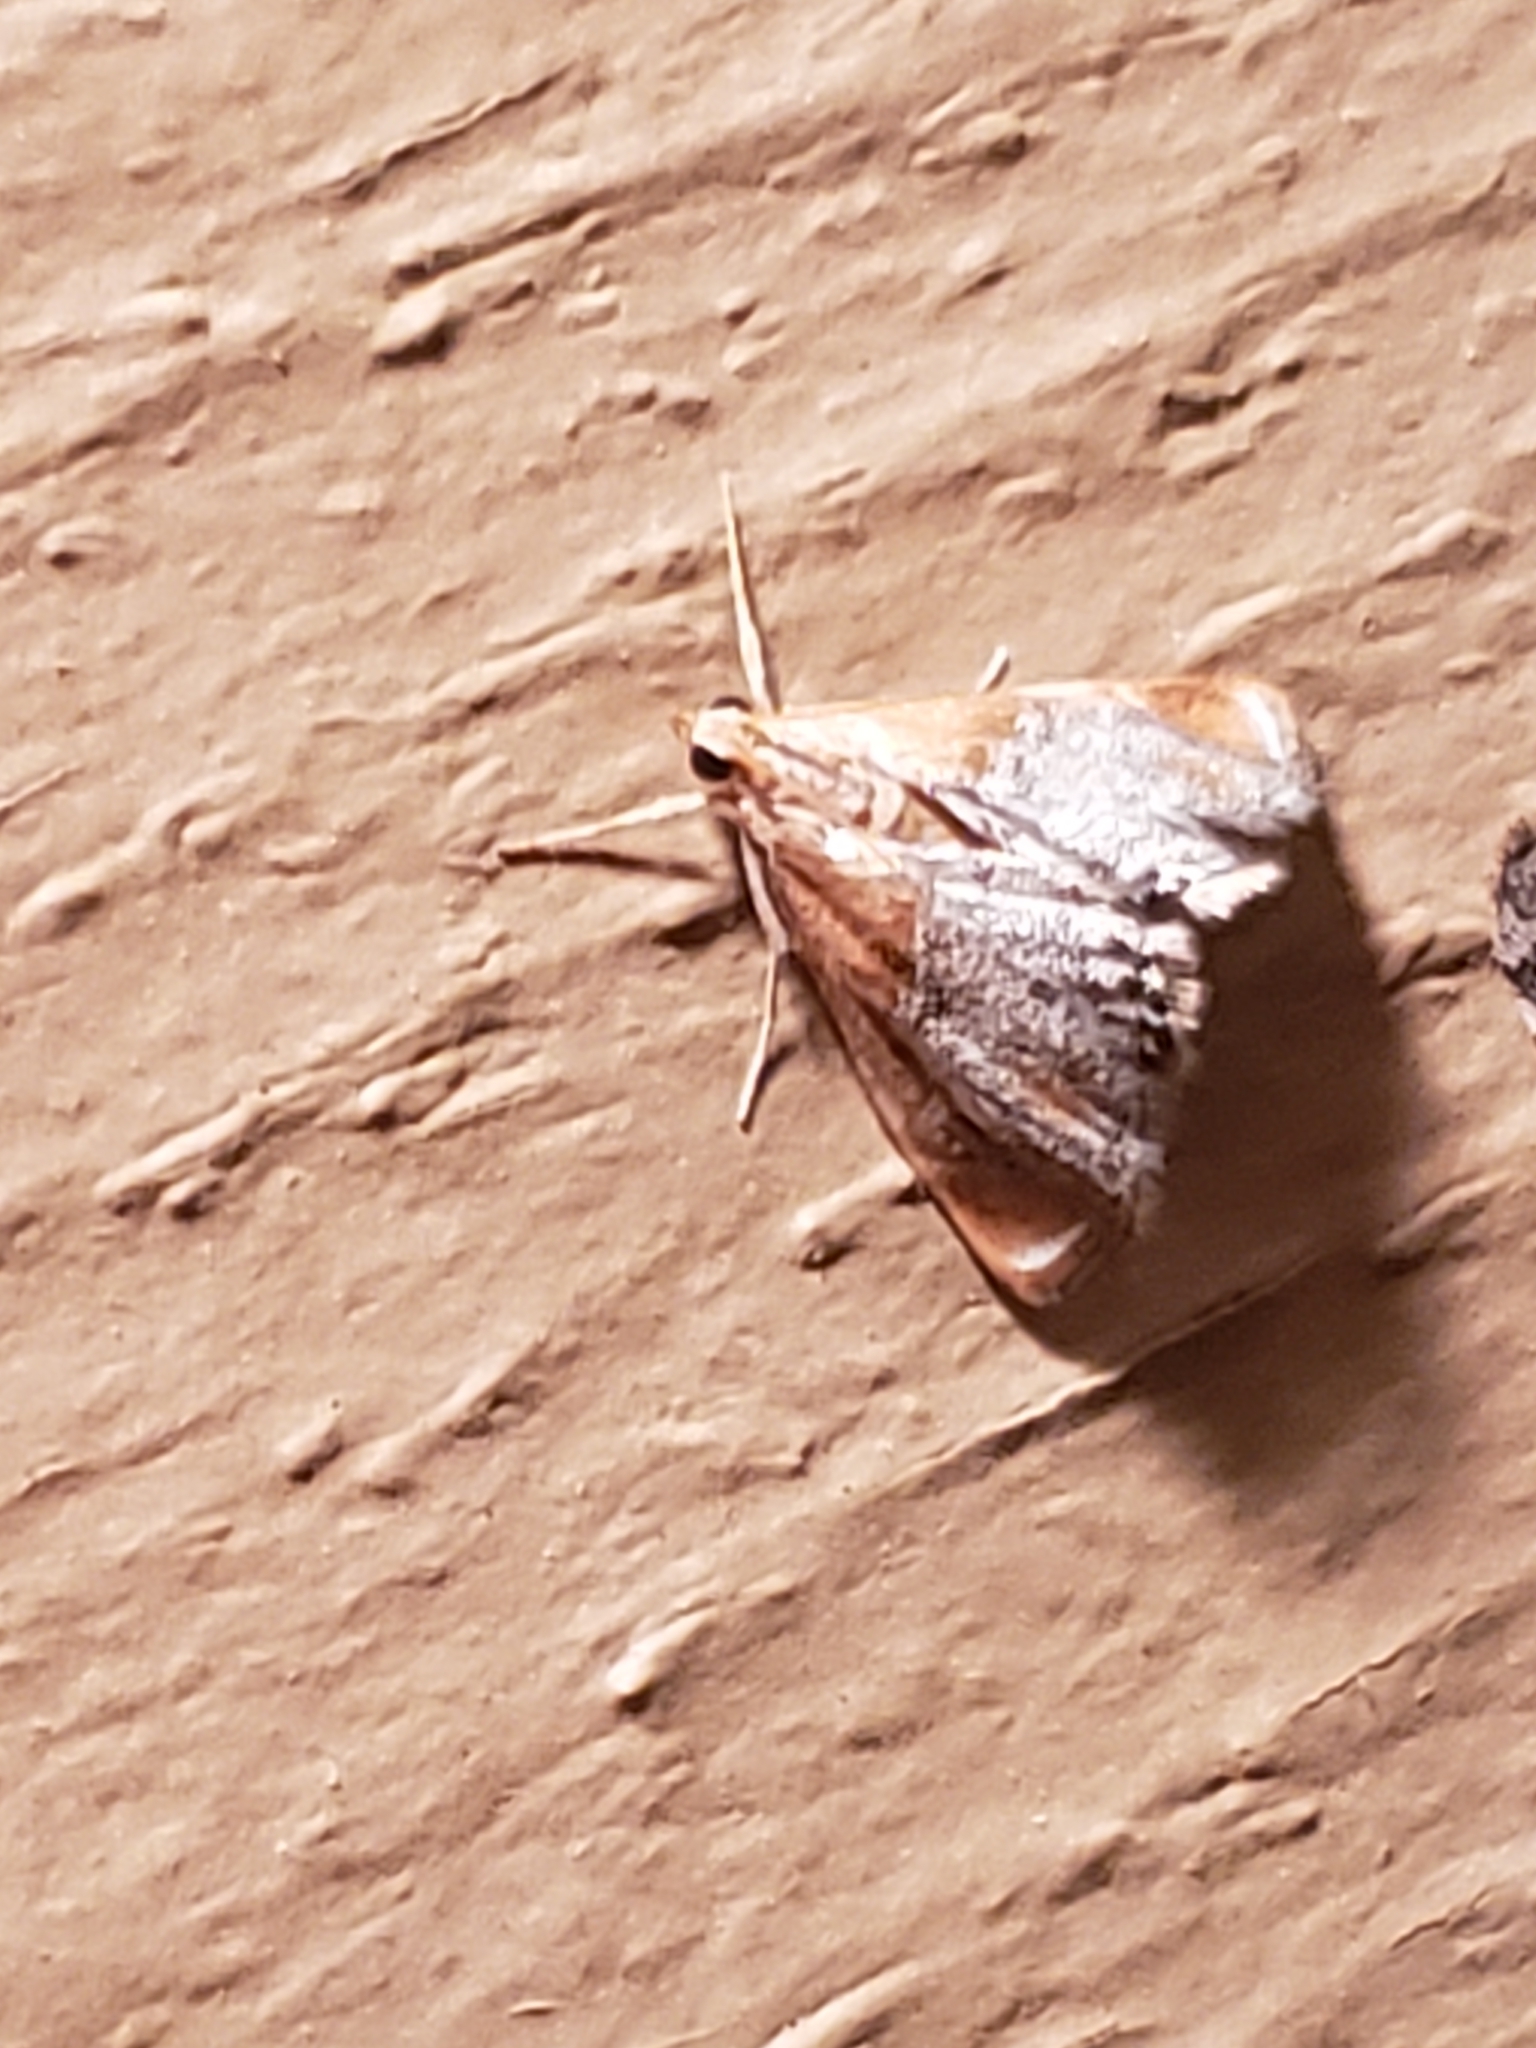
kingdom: Animalia
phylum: Arthropoda
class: Insecta
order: Lepidoptera
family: Crambidae
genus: Chalcoela
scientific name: Chalcoela iphitalis
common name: Sooty-winged chalcoela moth
